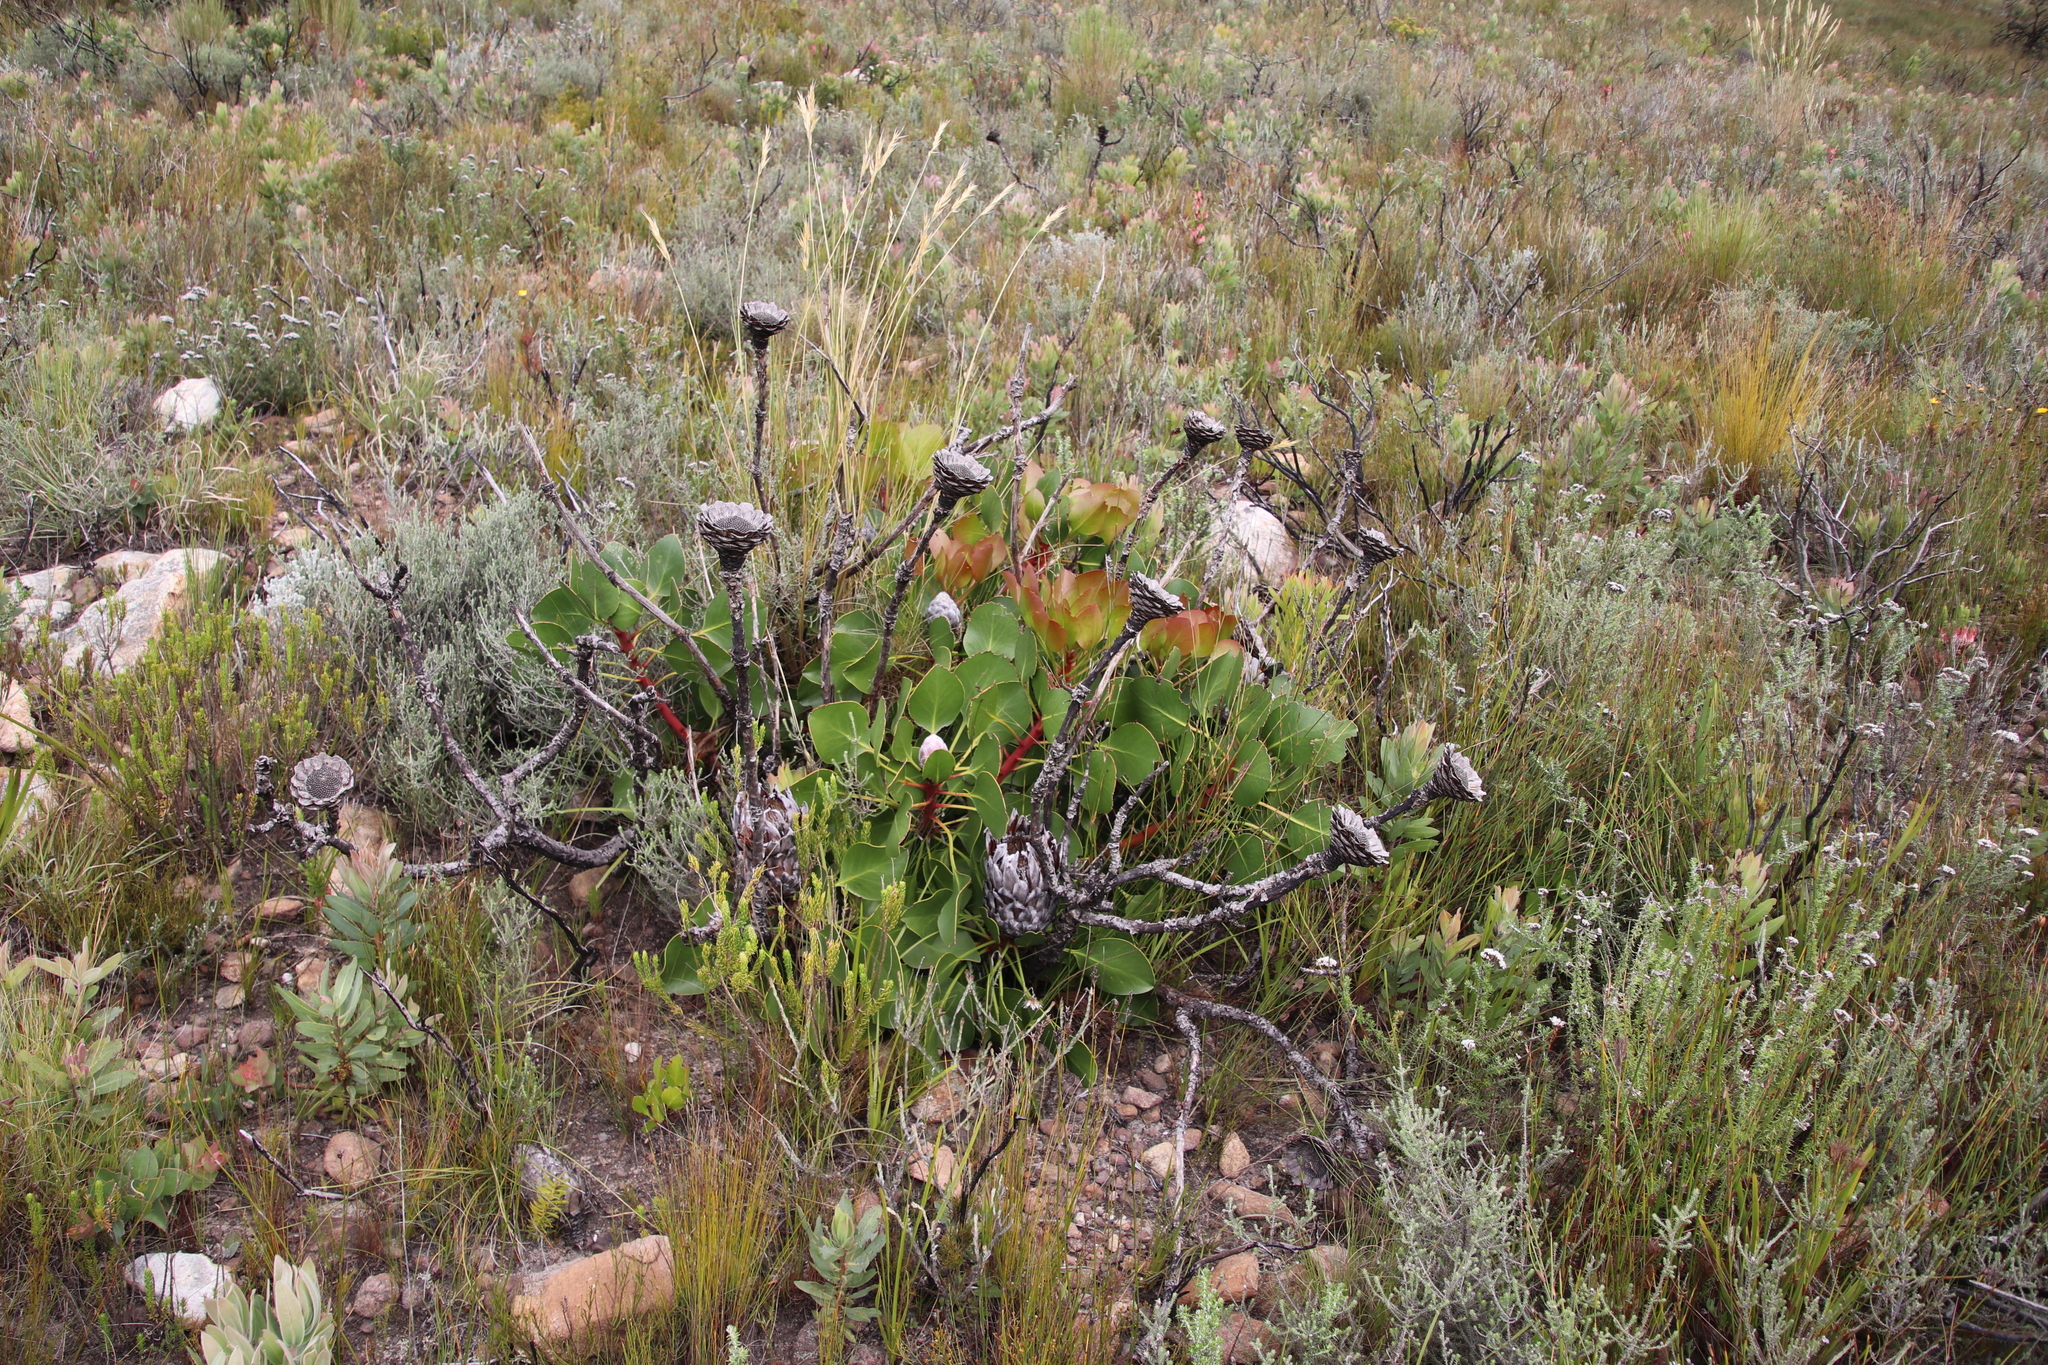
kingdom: Plantae
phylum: Tracheophyta
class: Magnoliopsida
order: Proteales
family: Proteaceae
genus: Protea
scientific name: Protea cynaroides
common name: King protea
